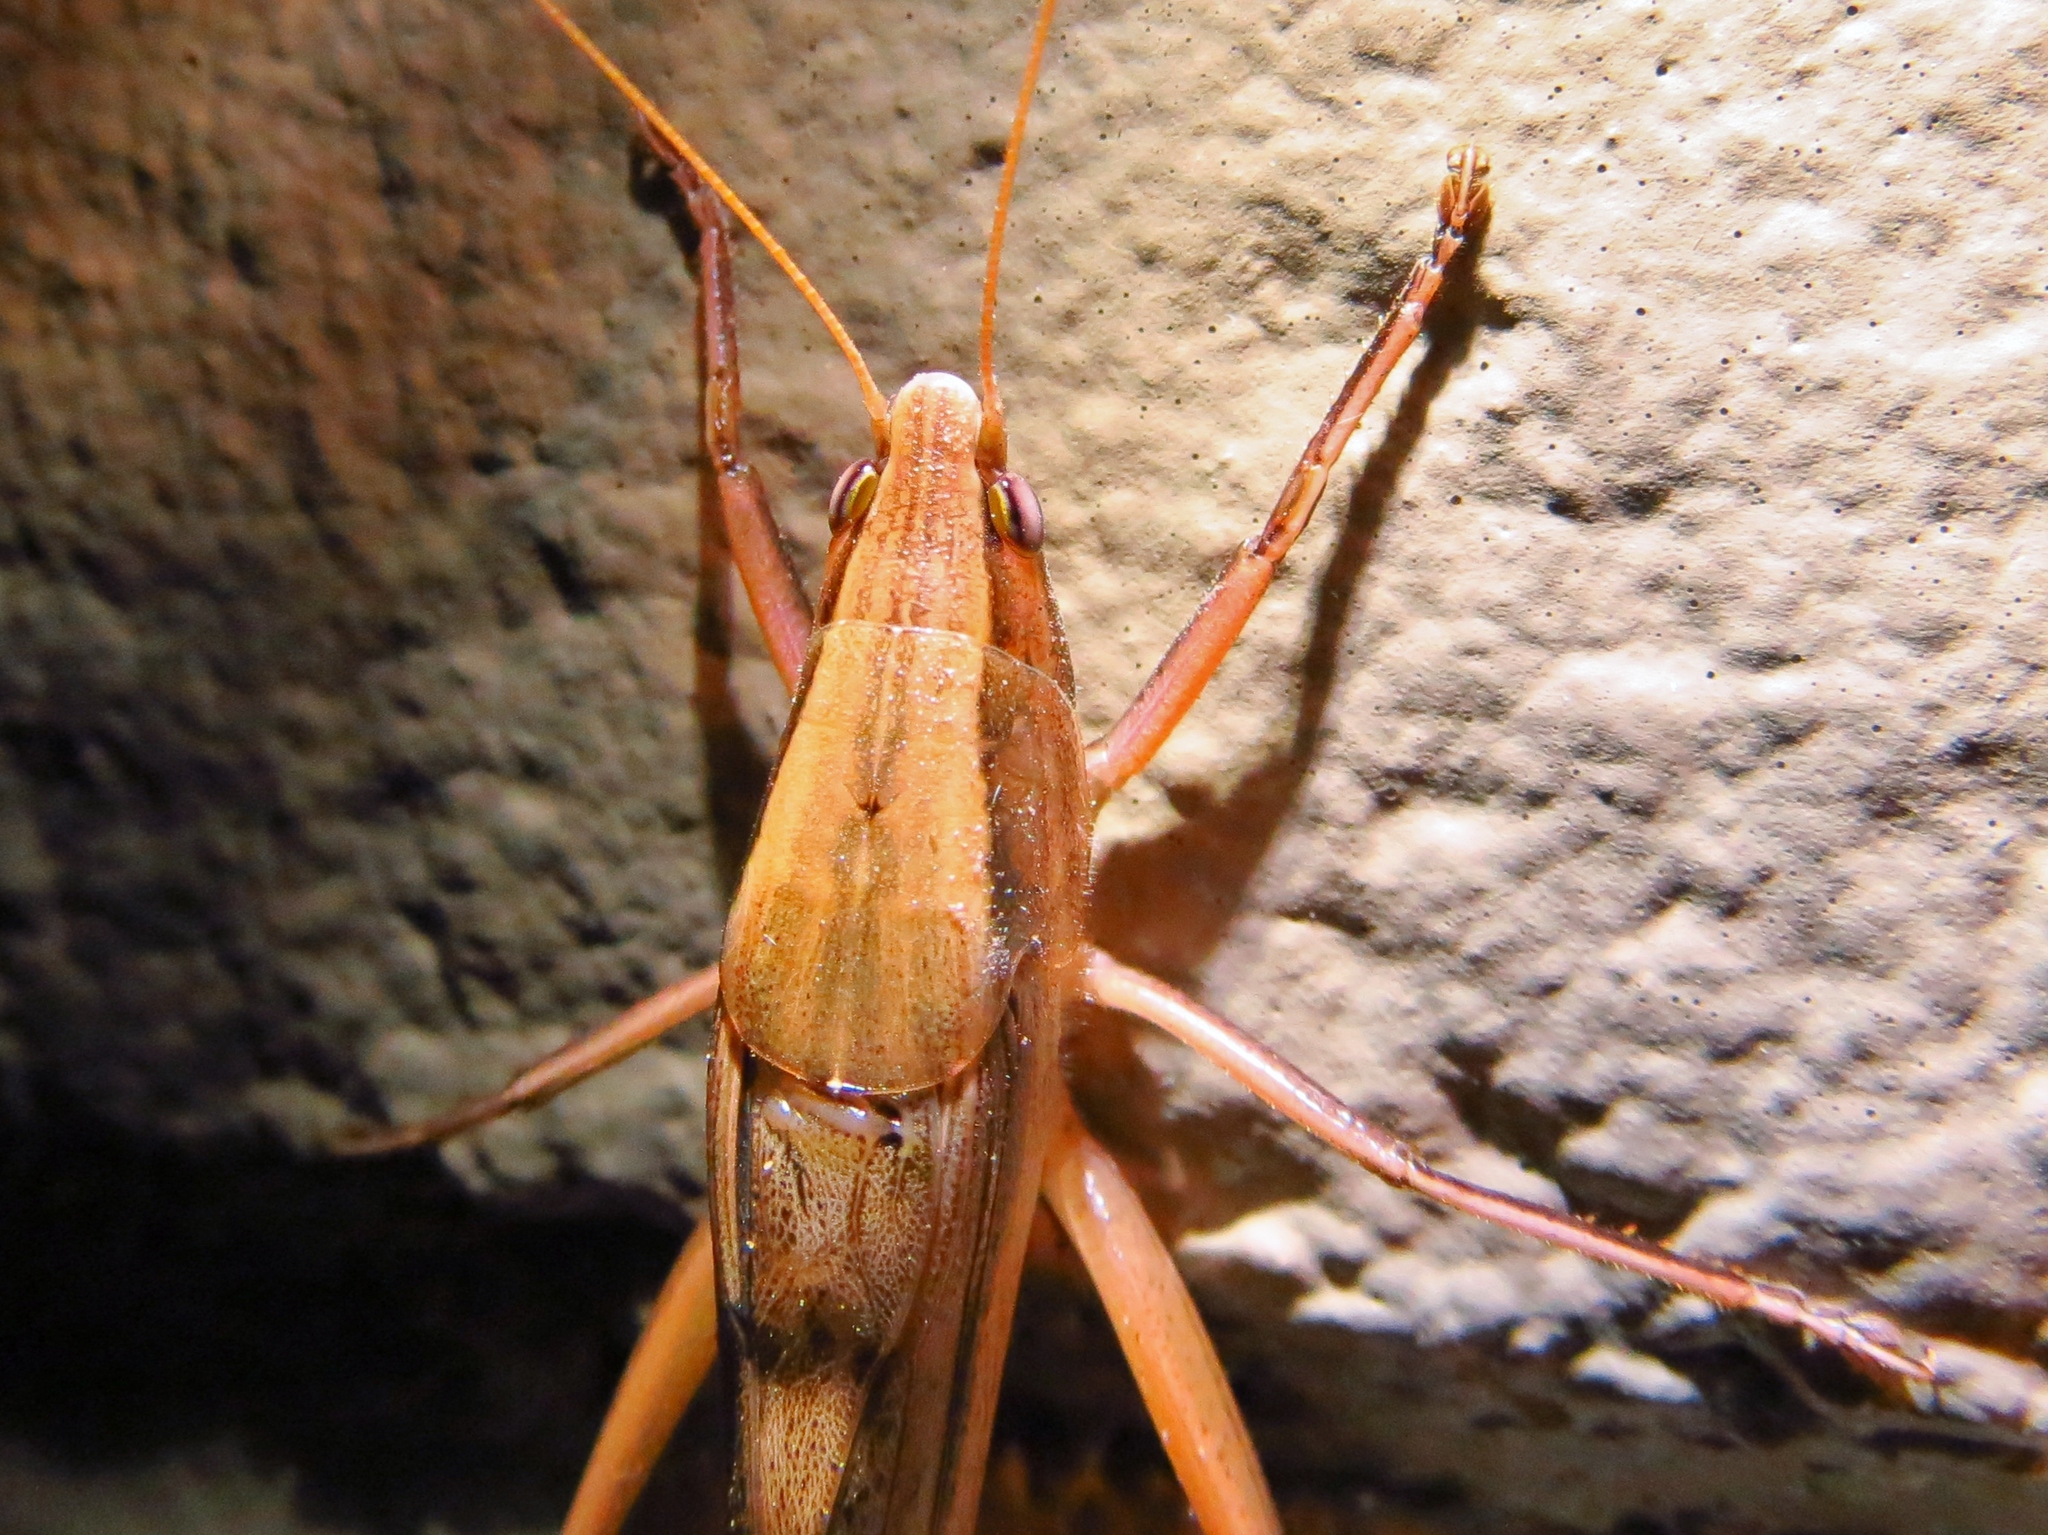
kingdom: Animalia
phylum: Arthropoda
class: Insecta
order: Orthoptera
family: Tettigoniidae
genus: Neoconocephalus
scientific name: Neoconocephalus triops
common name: Broad-tipped conehead
